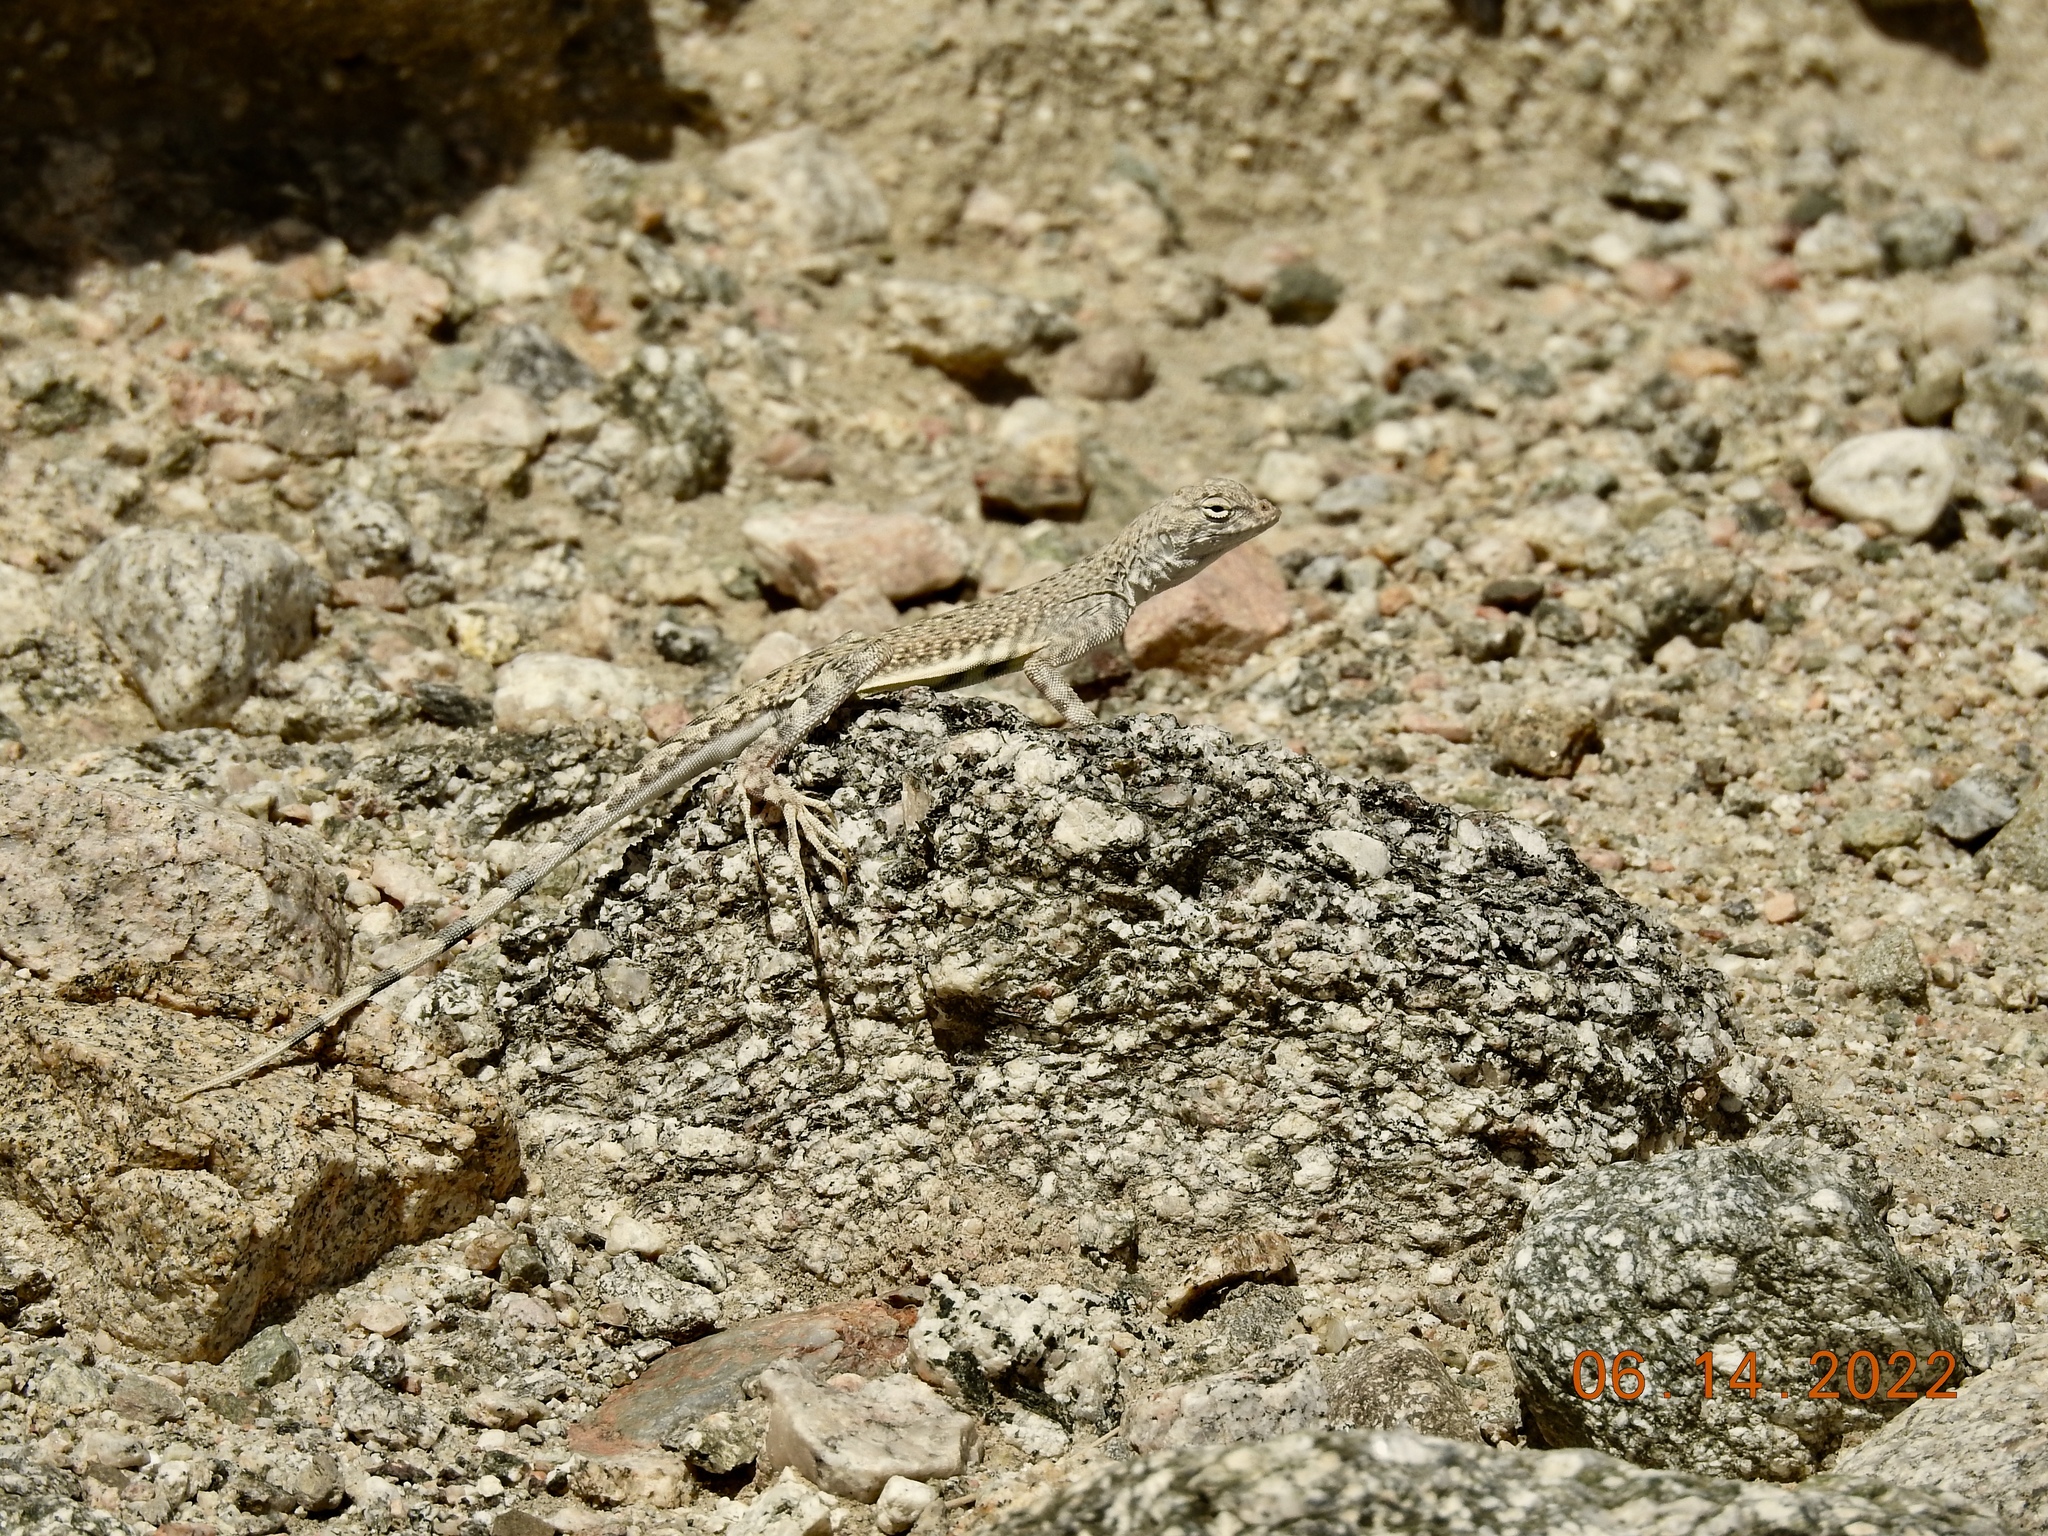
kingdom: Animalia
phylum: Chordata
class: Squamata
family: Phrynosomatidae
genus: Callisaurus
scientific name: Callisaurus draconoides
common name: Zebra-tailed lizard
